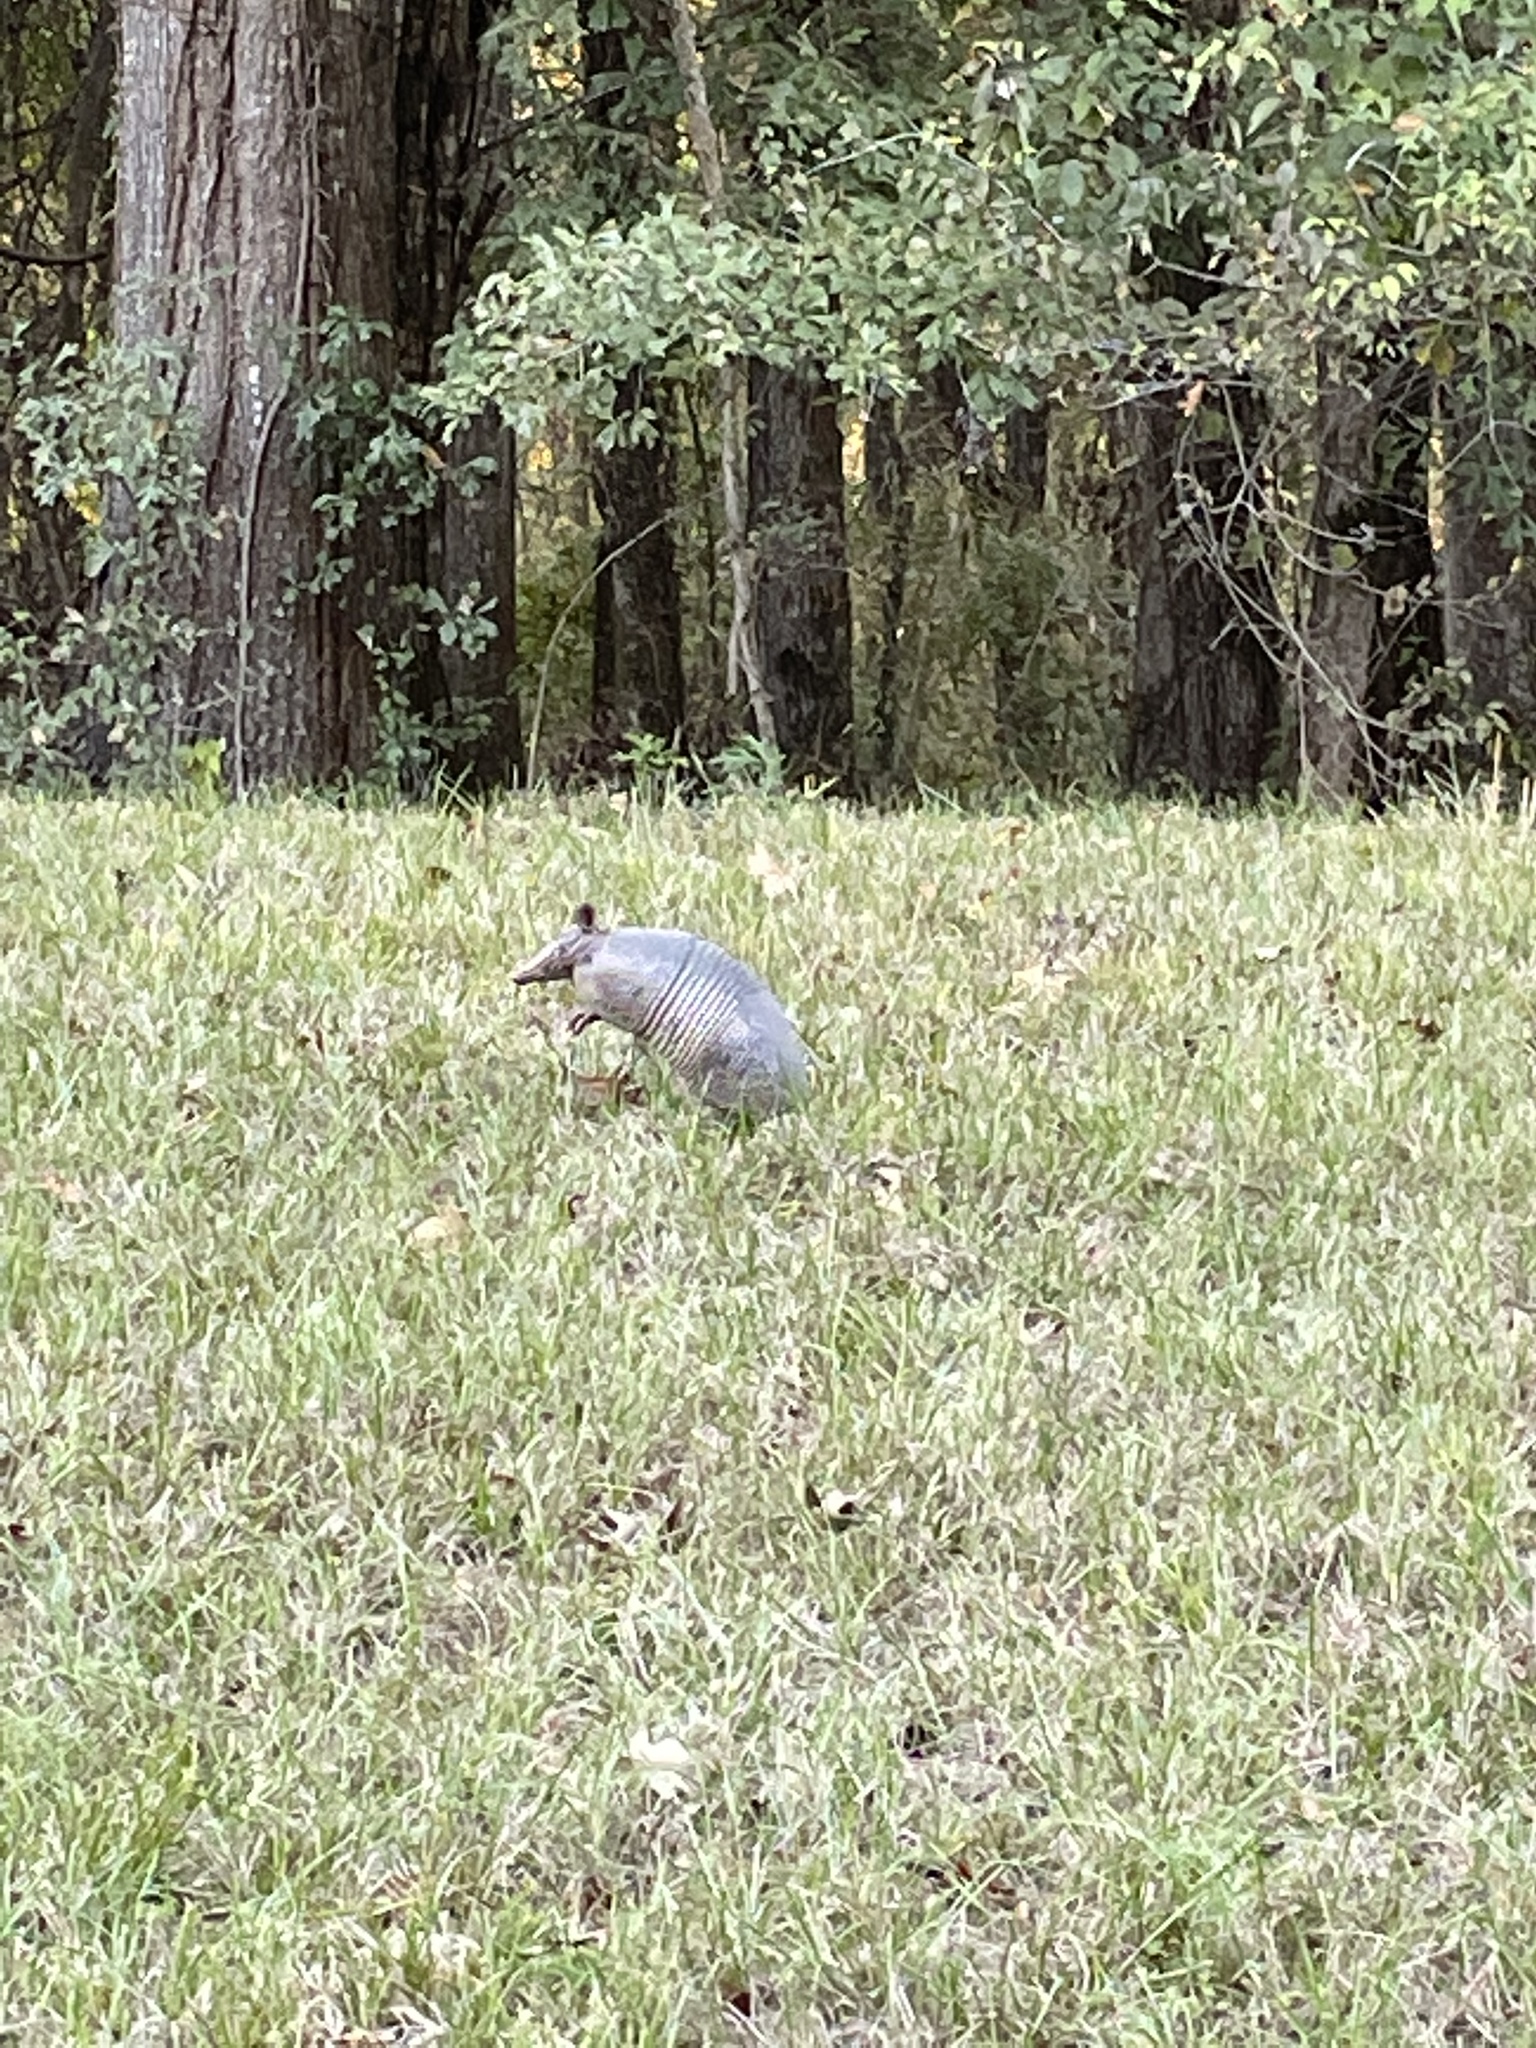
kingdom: Animalia
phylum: Chordata
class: Mammalia
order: Cingulata
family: Dasypodidae
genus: Dasypus
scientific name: Dasypus novemcinctus
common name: Nine-banded armadillo
